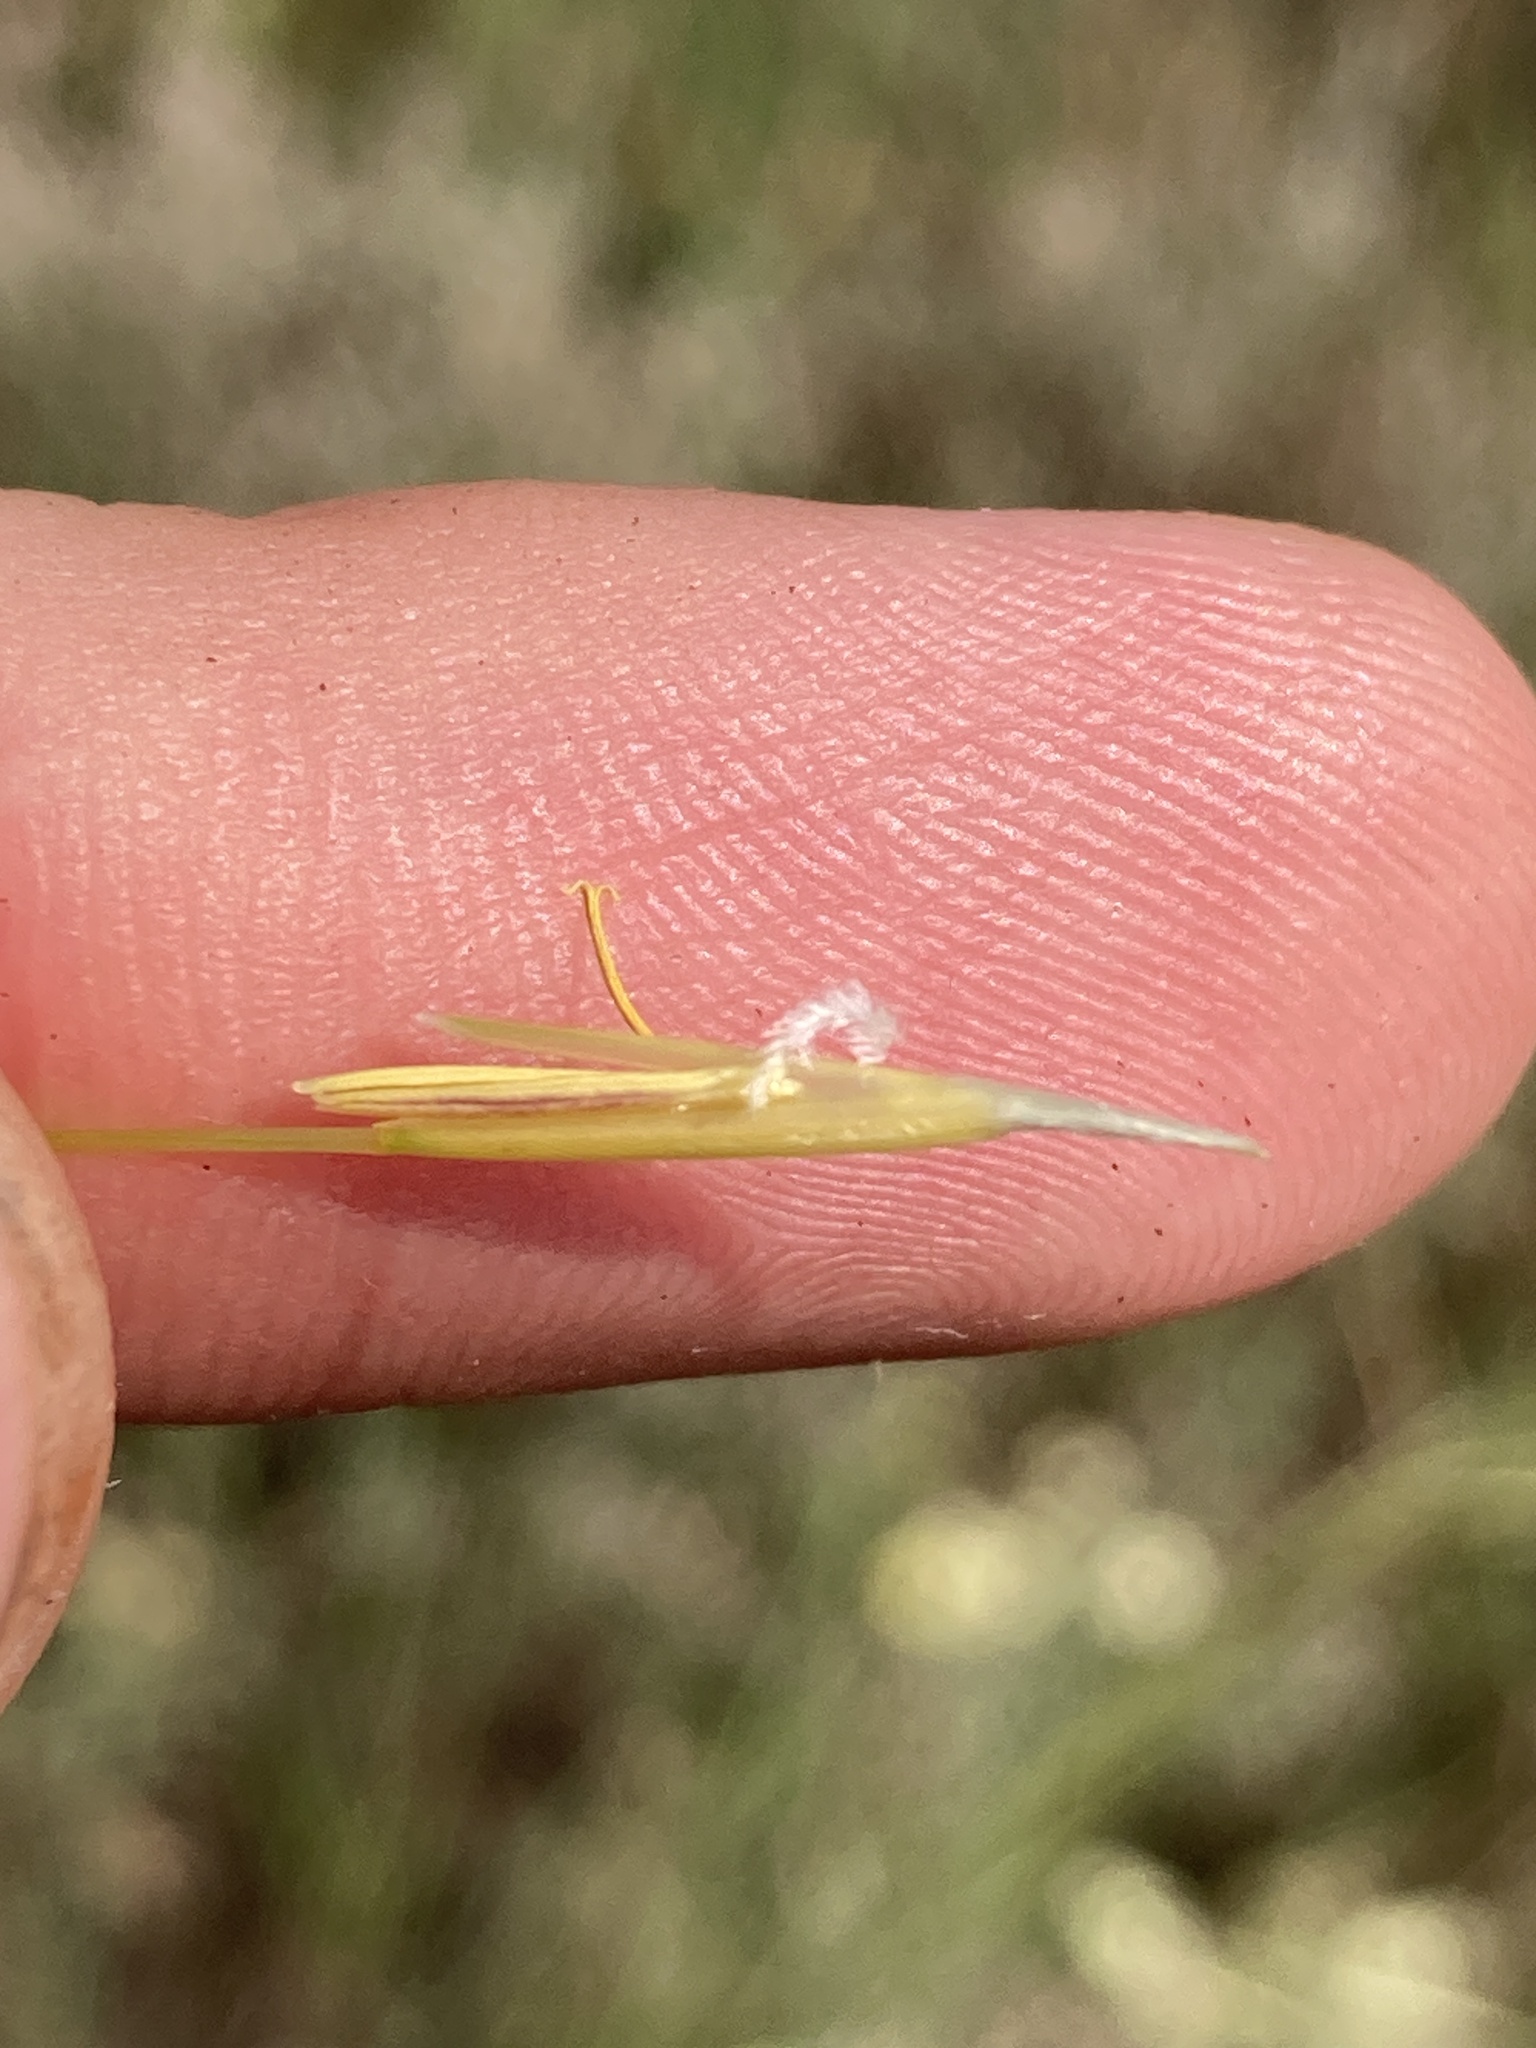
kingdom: Plantae
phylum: Tracheophyta
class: Liliopsida
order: Poales
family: Poaceae
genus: Stipa
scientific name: Stipa capillata
